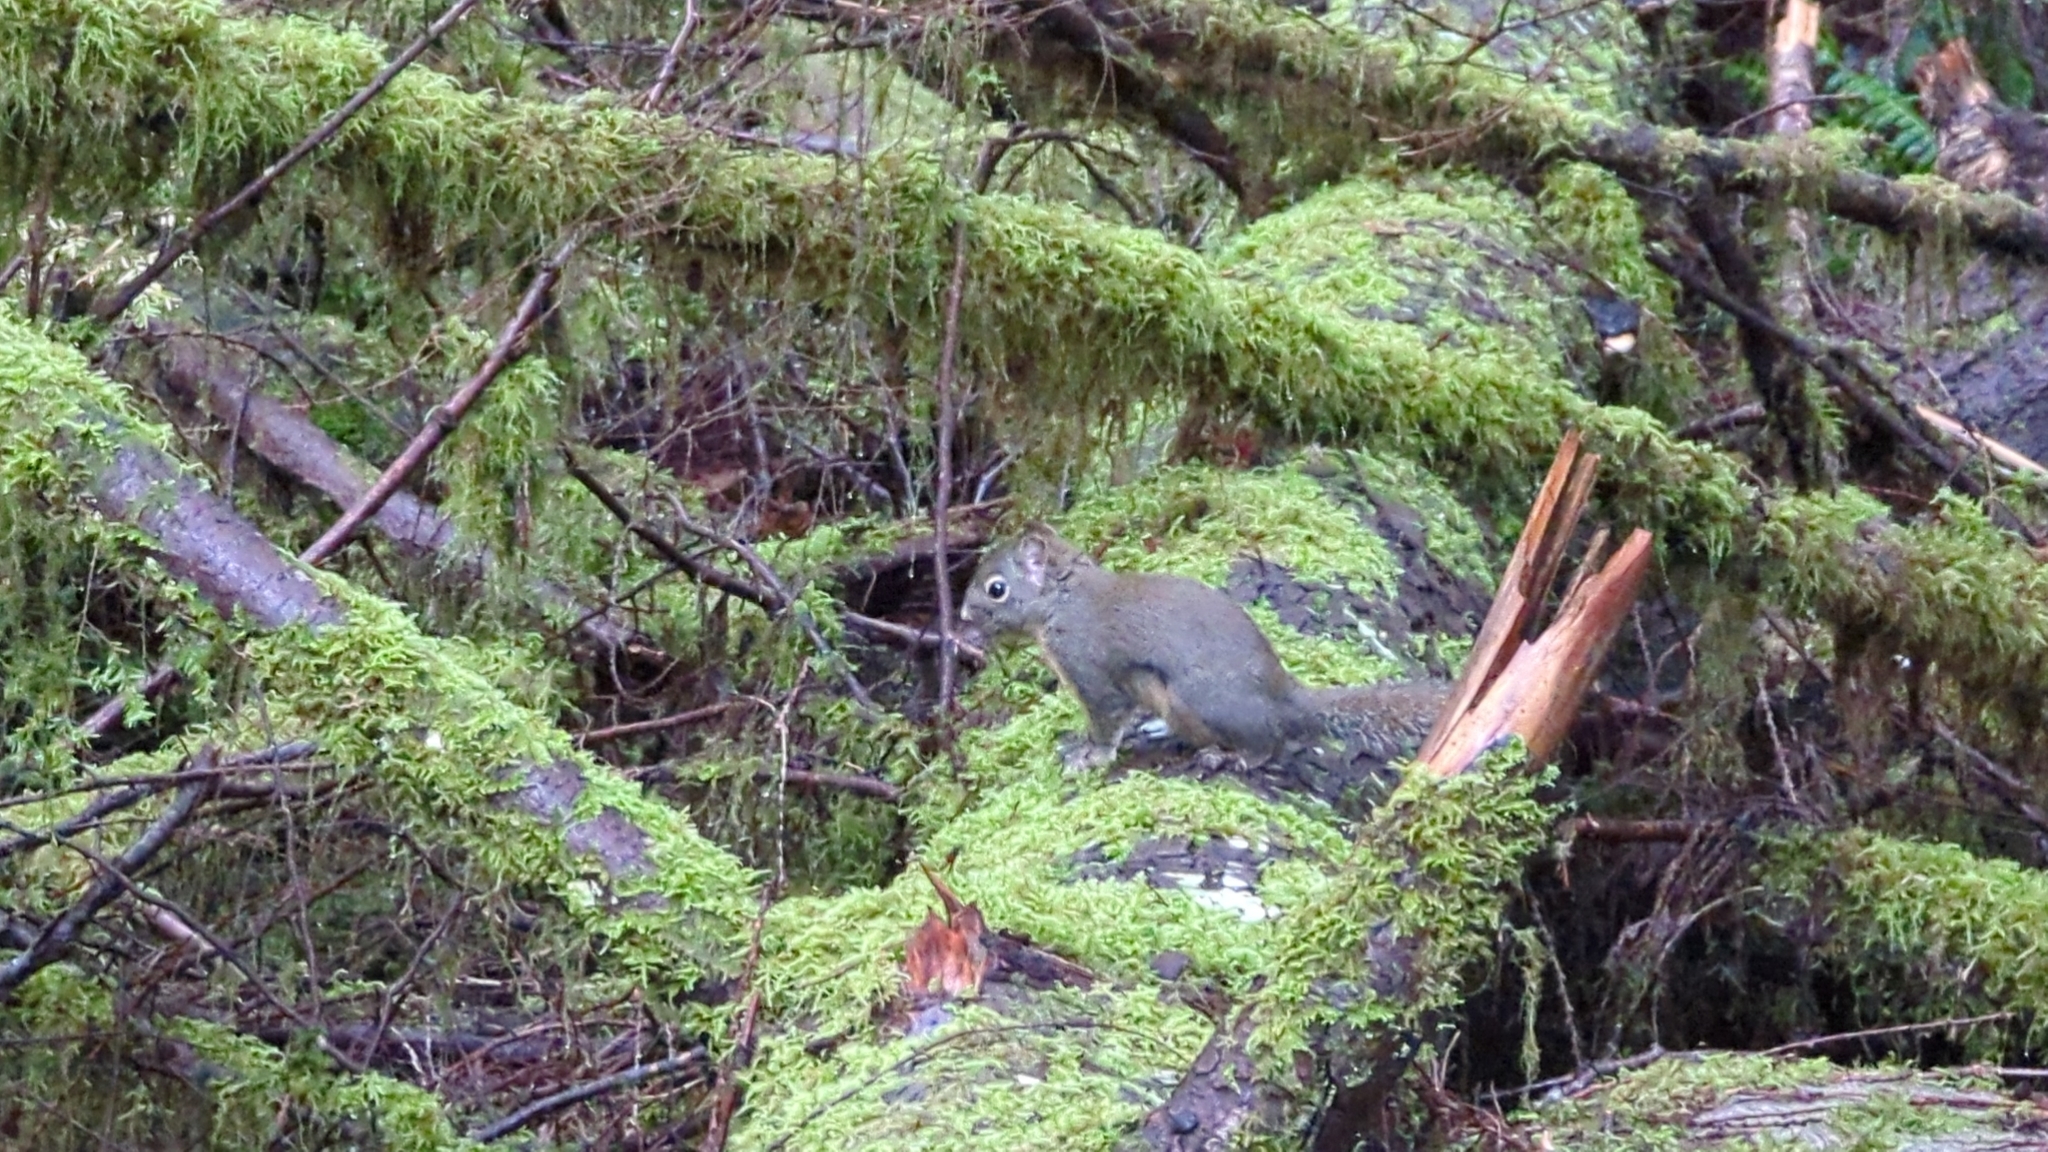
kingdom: Animalia
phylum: Chordata
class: Mammalia
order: Rodentia
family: Sciuridae
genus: Tamiasciurus
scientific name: Tamiasciurus douglasii
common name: Douglas's squirrel
